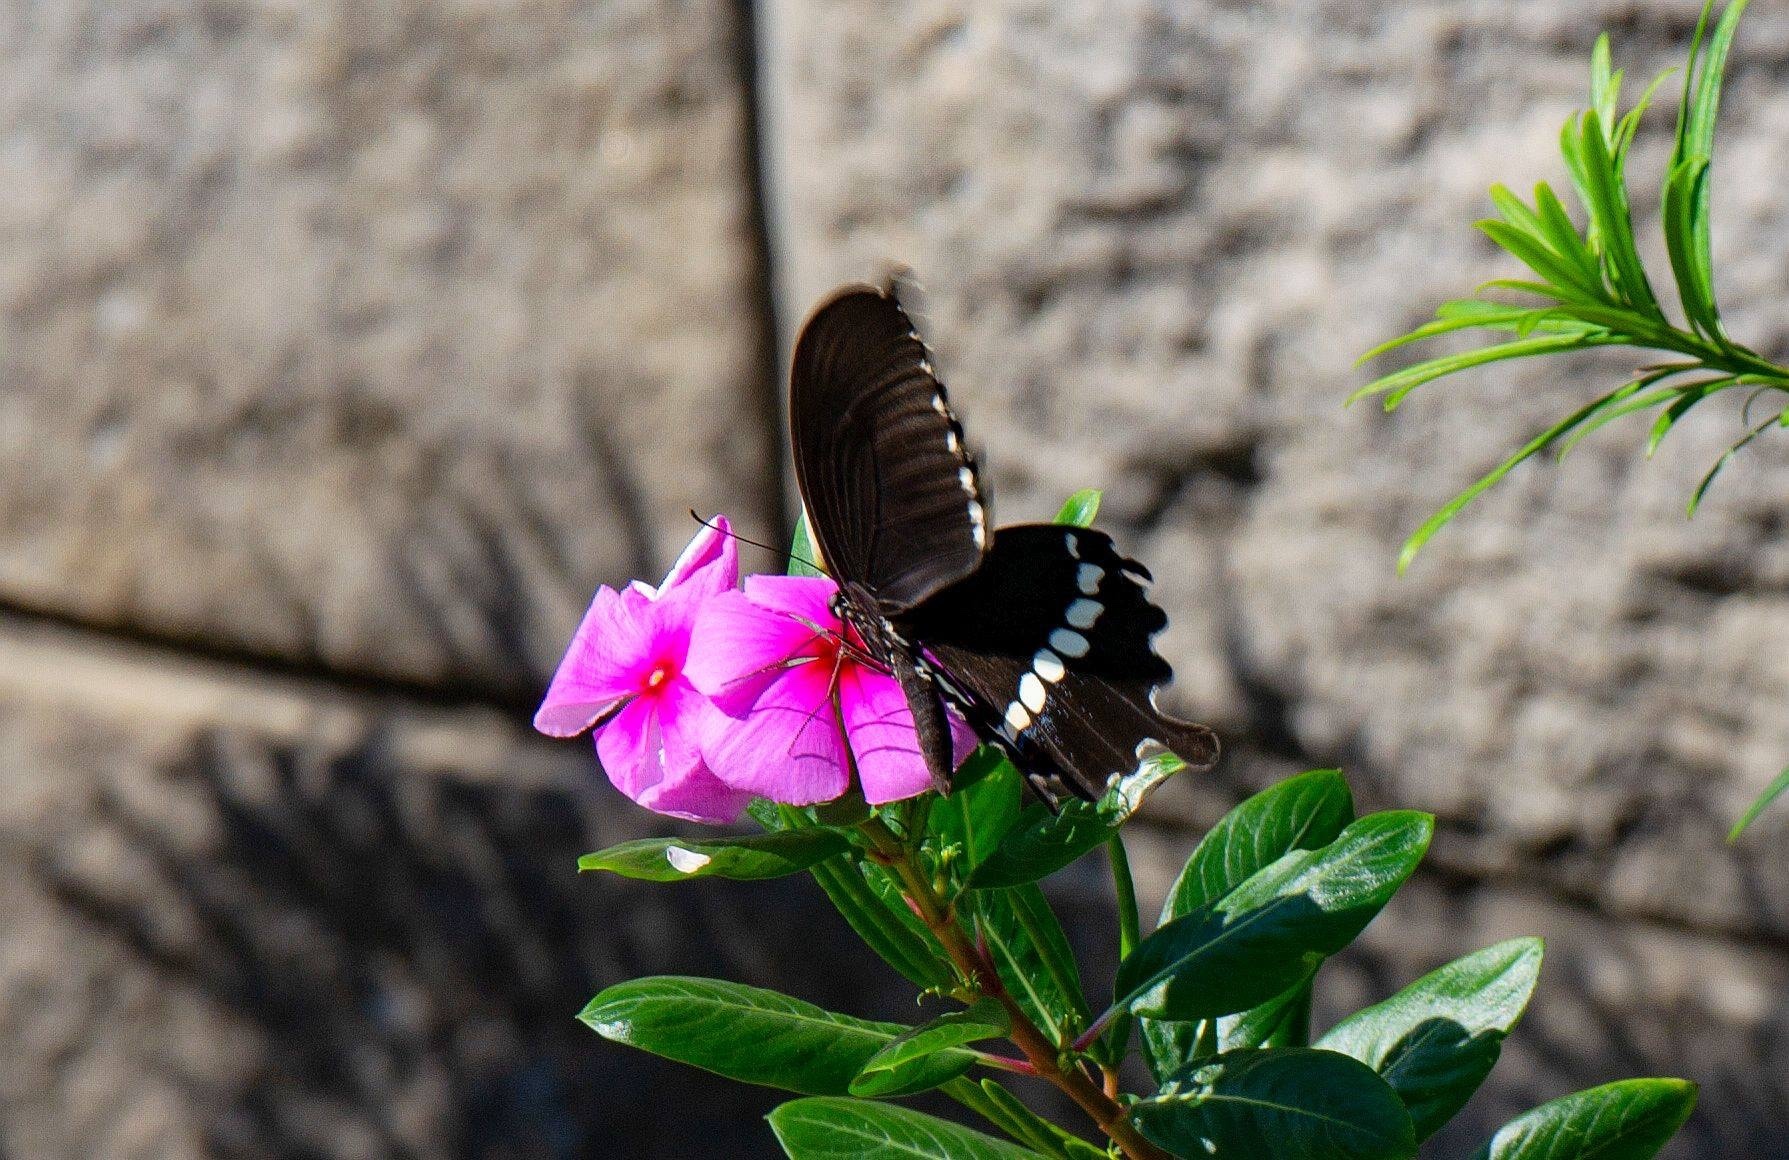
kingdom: Animalia
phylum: Arthropoda
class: Insecta
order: Lepidoptera
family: Papilionidae
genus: Papilio
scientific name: Papilio polytes
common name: Common mormon
